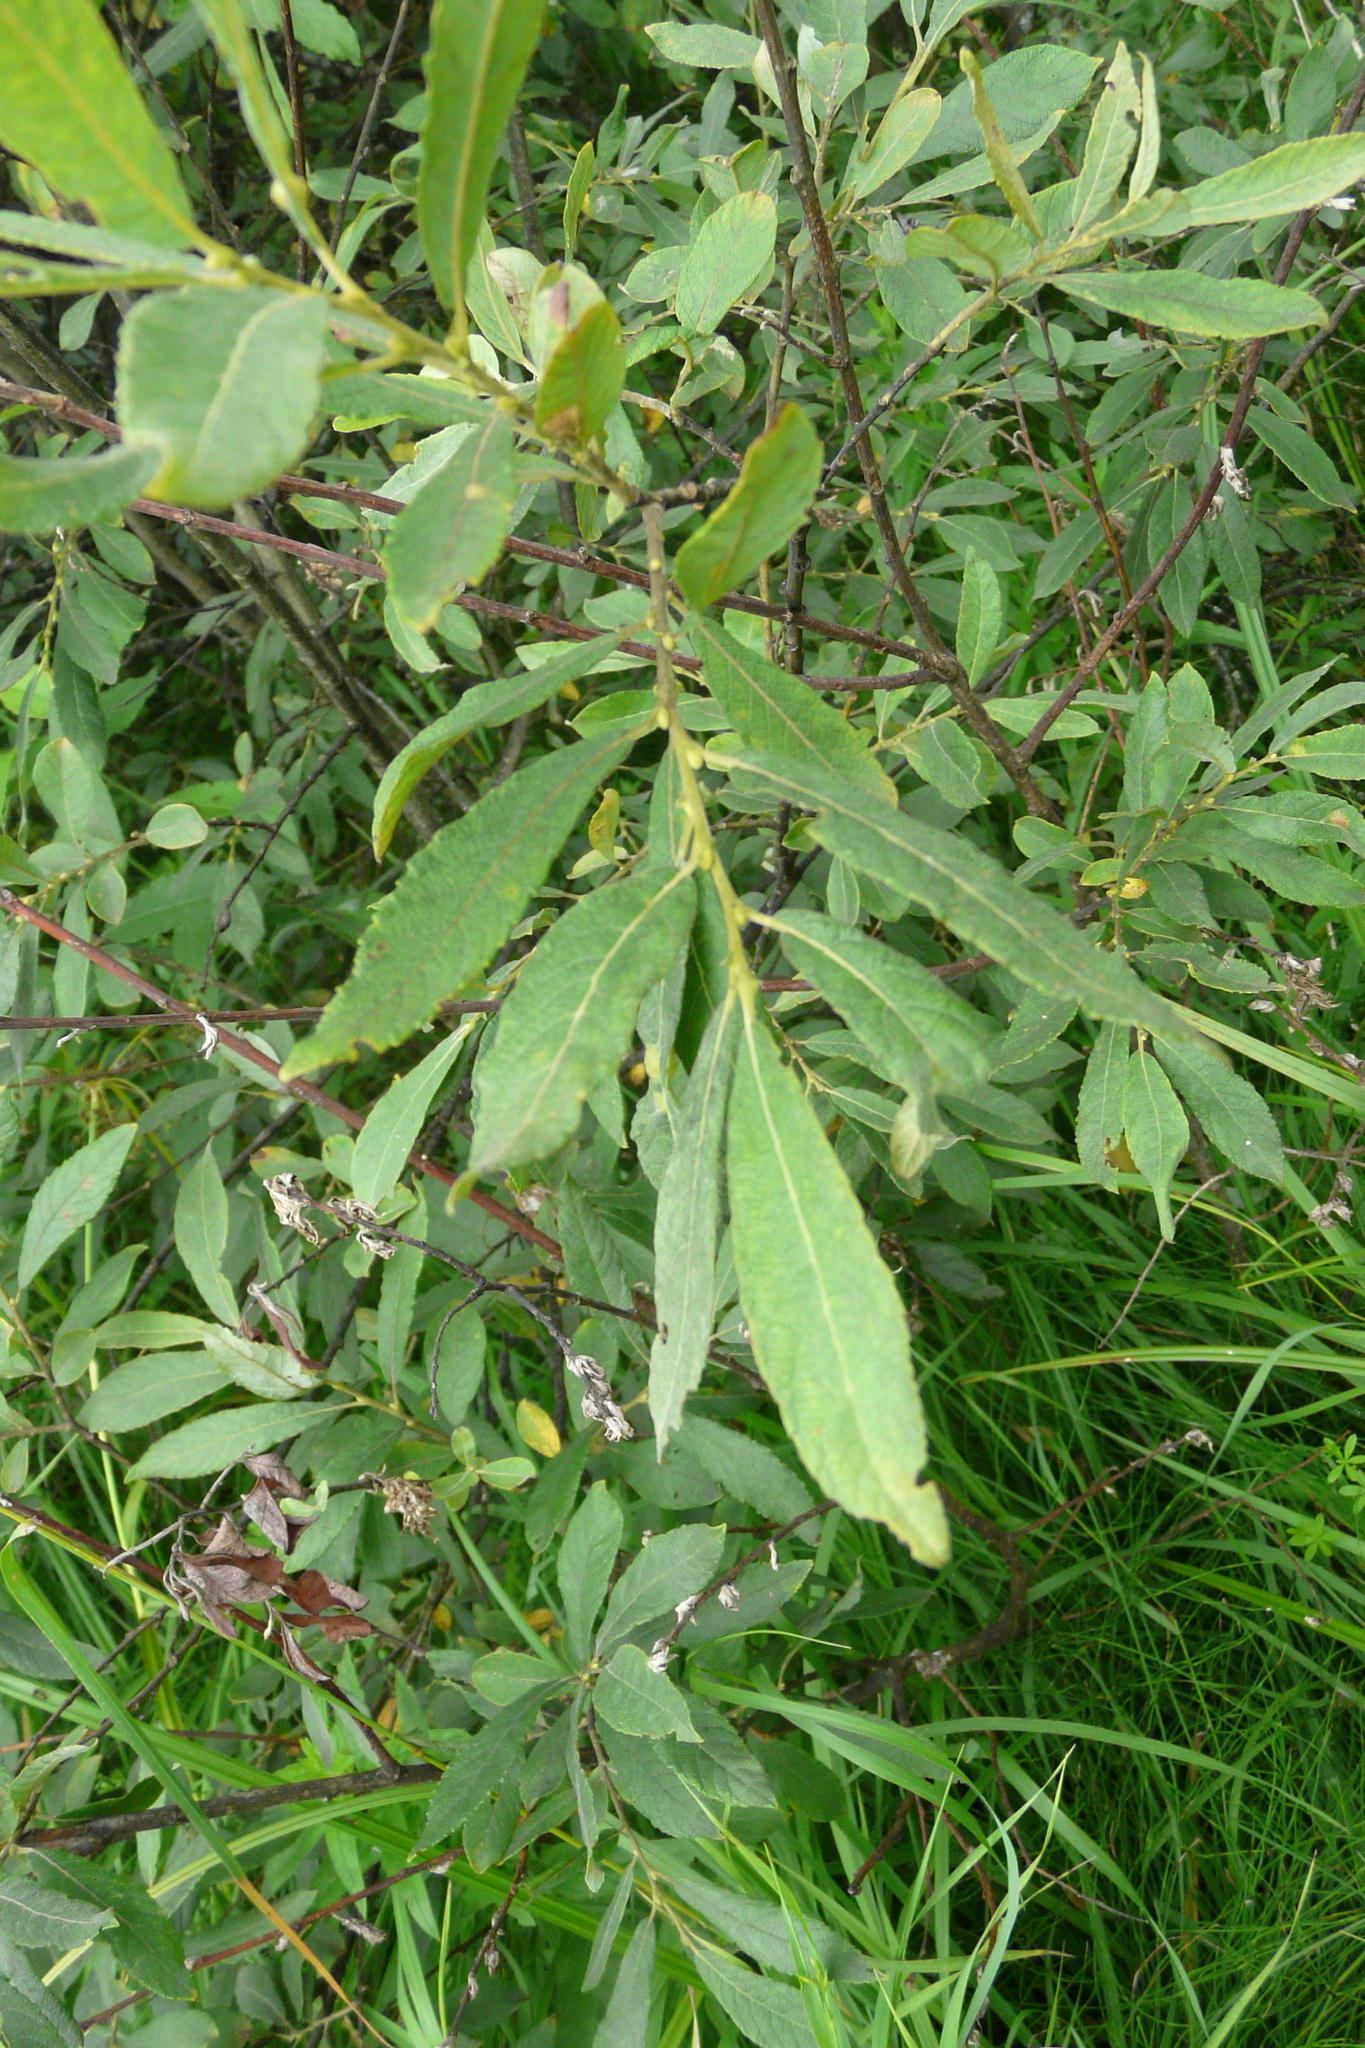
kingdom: Plantae
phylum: Tracheophyta
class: Magnoliopsida
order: Malpighiales
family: Salicaceae
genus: Salix
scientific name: Salix cinerea
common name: Common sallow
